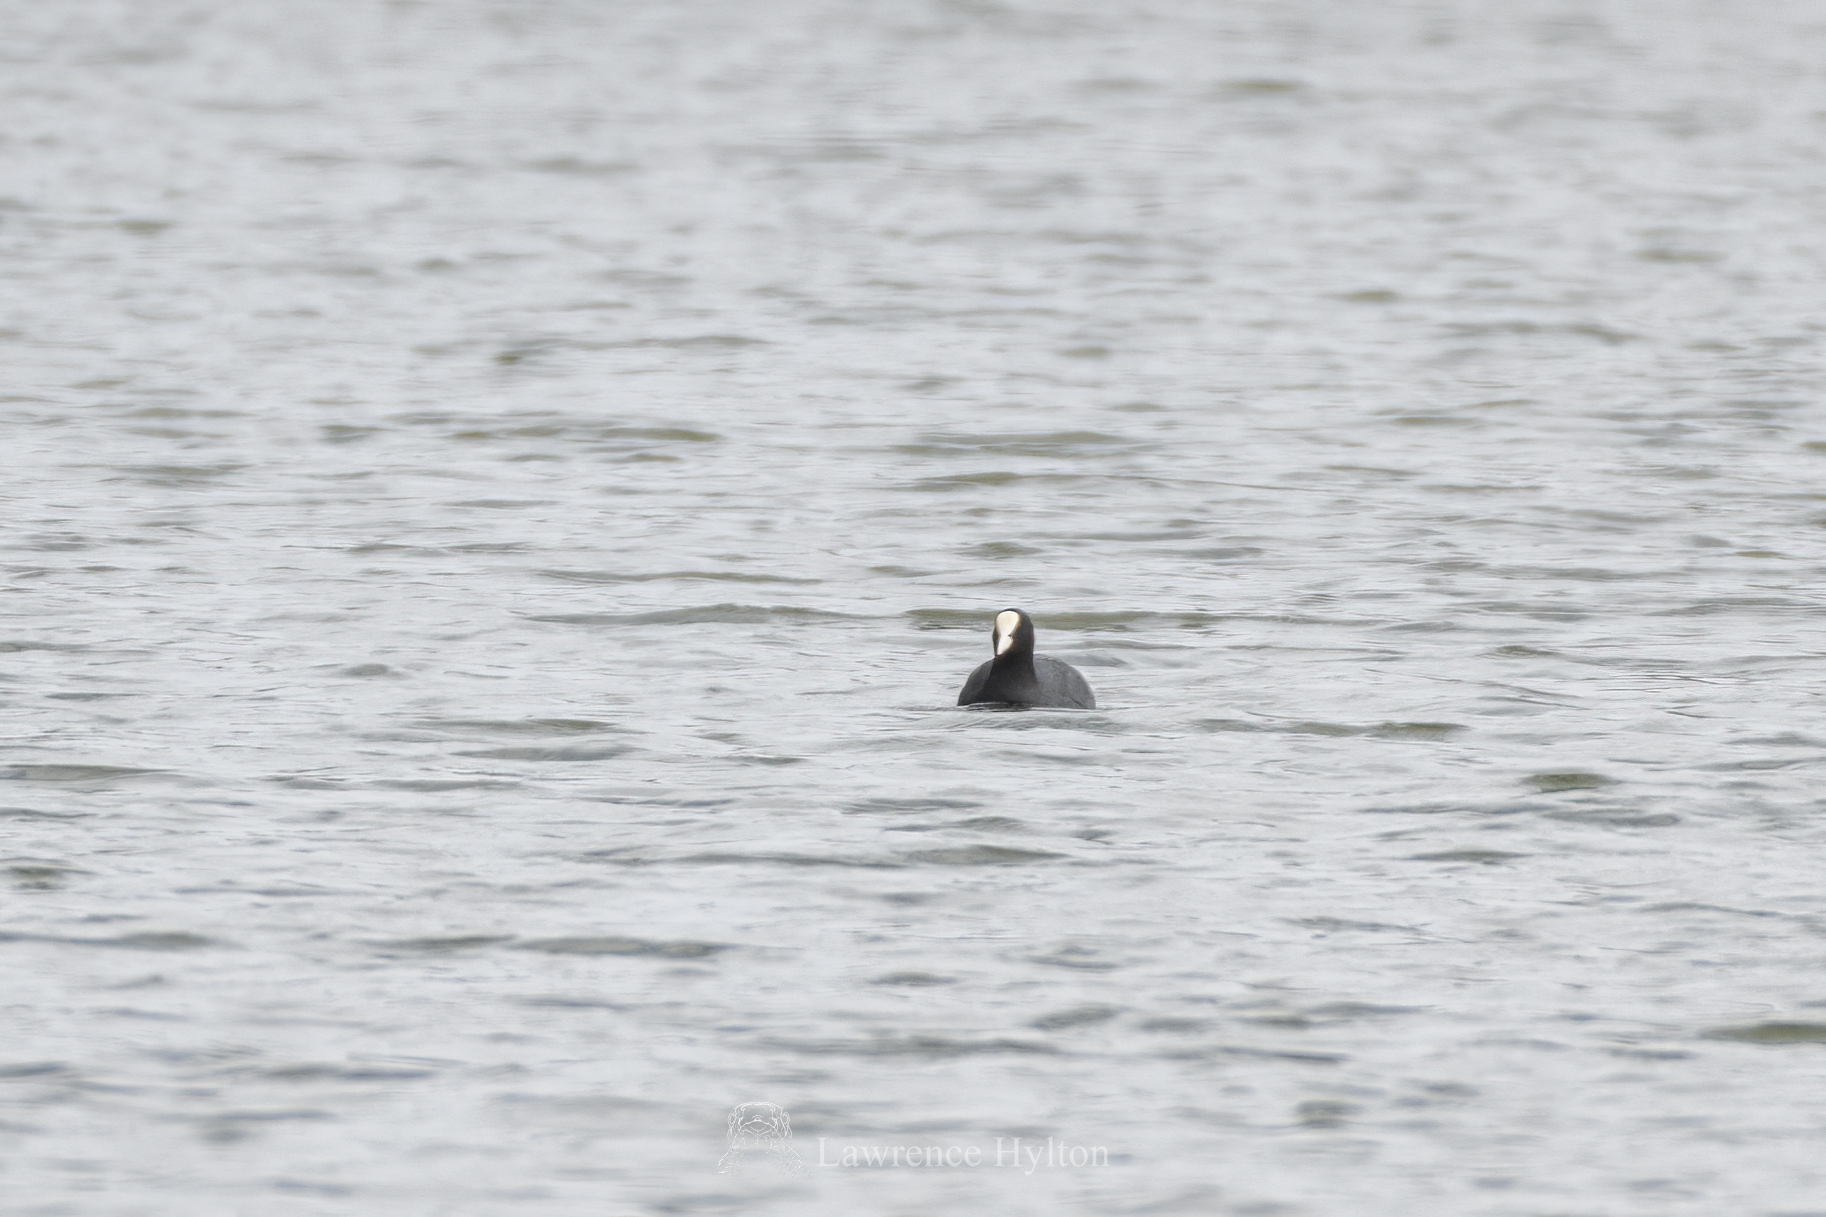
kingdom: Animalia
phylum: Chordata
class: Aves
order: Gruiformes
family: Rallidae
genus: Fulica
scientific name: Fulica atra
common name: Eurasian coot
